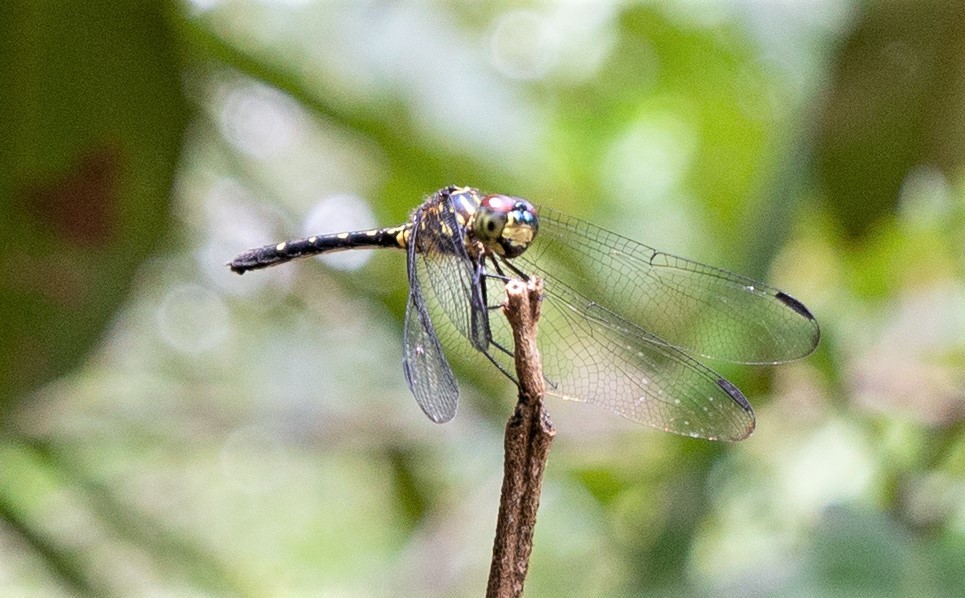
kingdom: Animalia
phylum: Arthropoda
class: Insecta
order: Odonata
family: Libellulidae
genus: Dythemis
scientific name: Dythemis nigra
